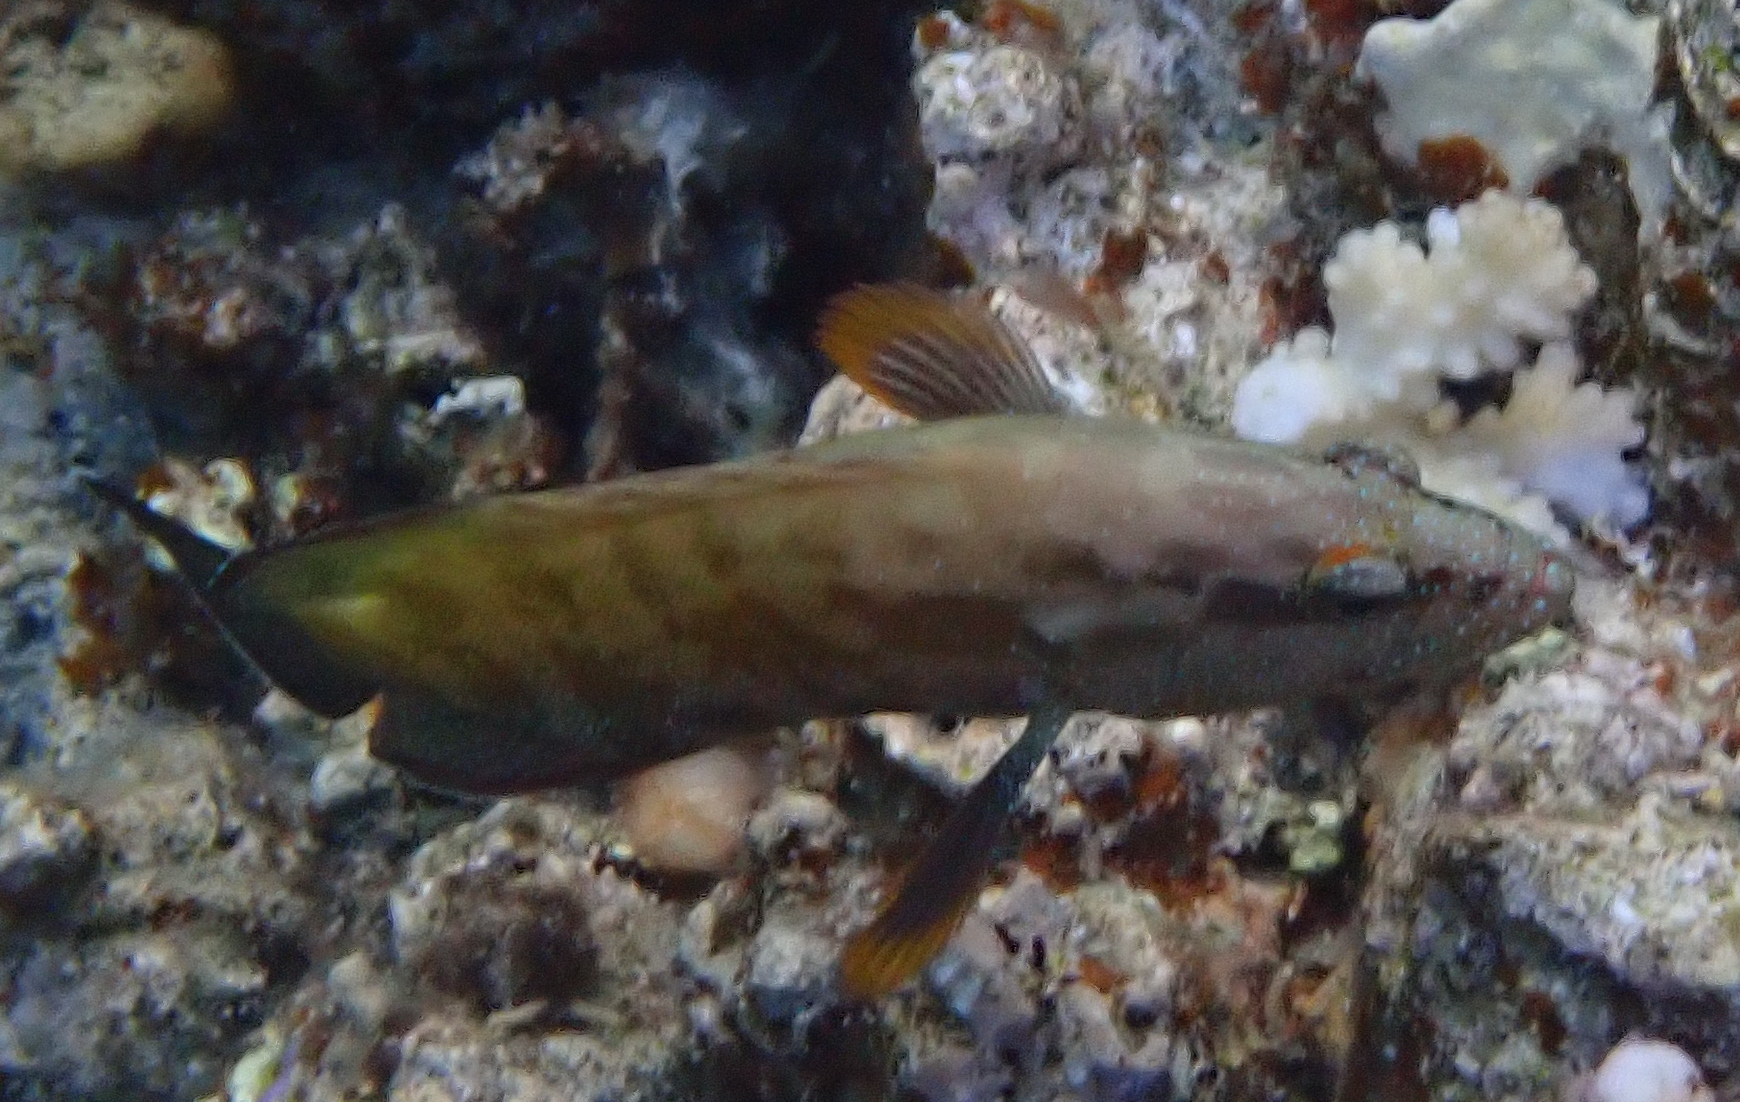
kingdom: Animalia
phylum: Chordata
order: Perciformes
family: Serranidae
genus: Cephalopholis
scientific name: Cephalopholis hemistiktos
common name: Halfspotted hind
